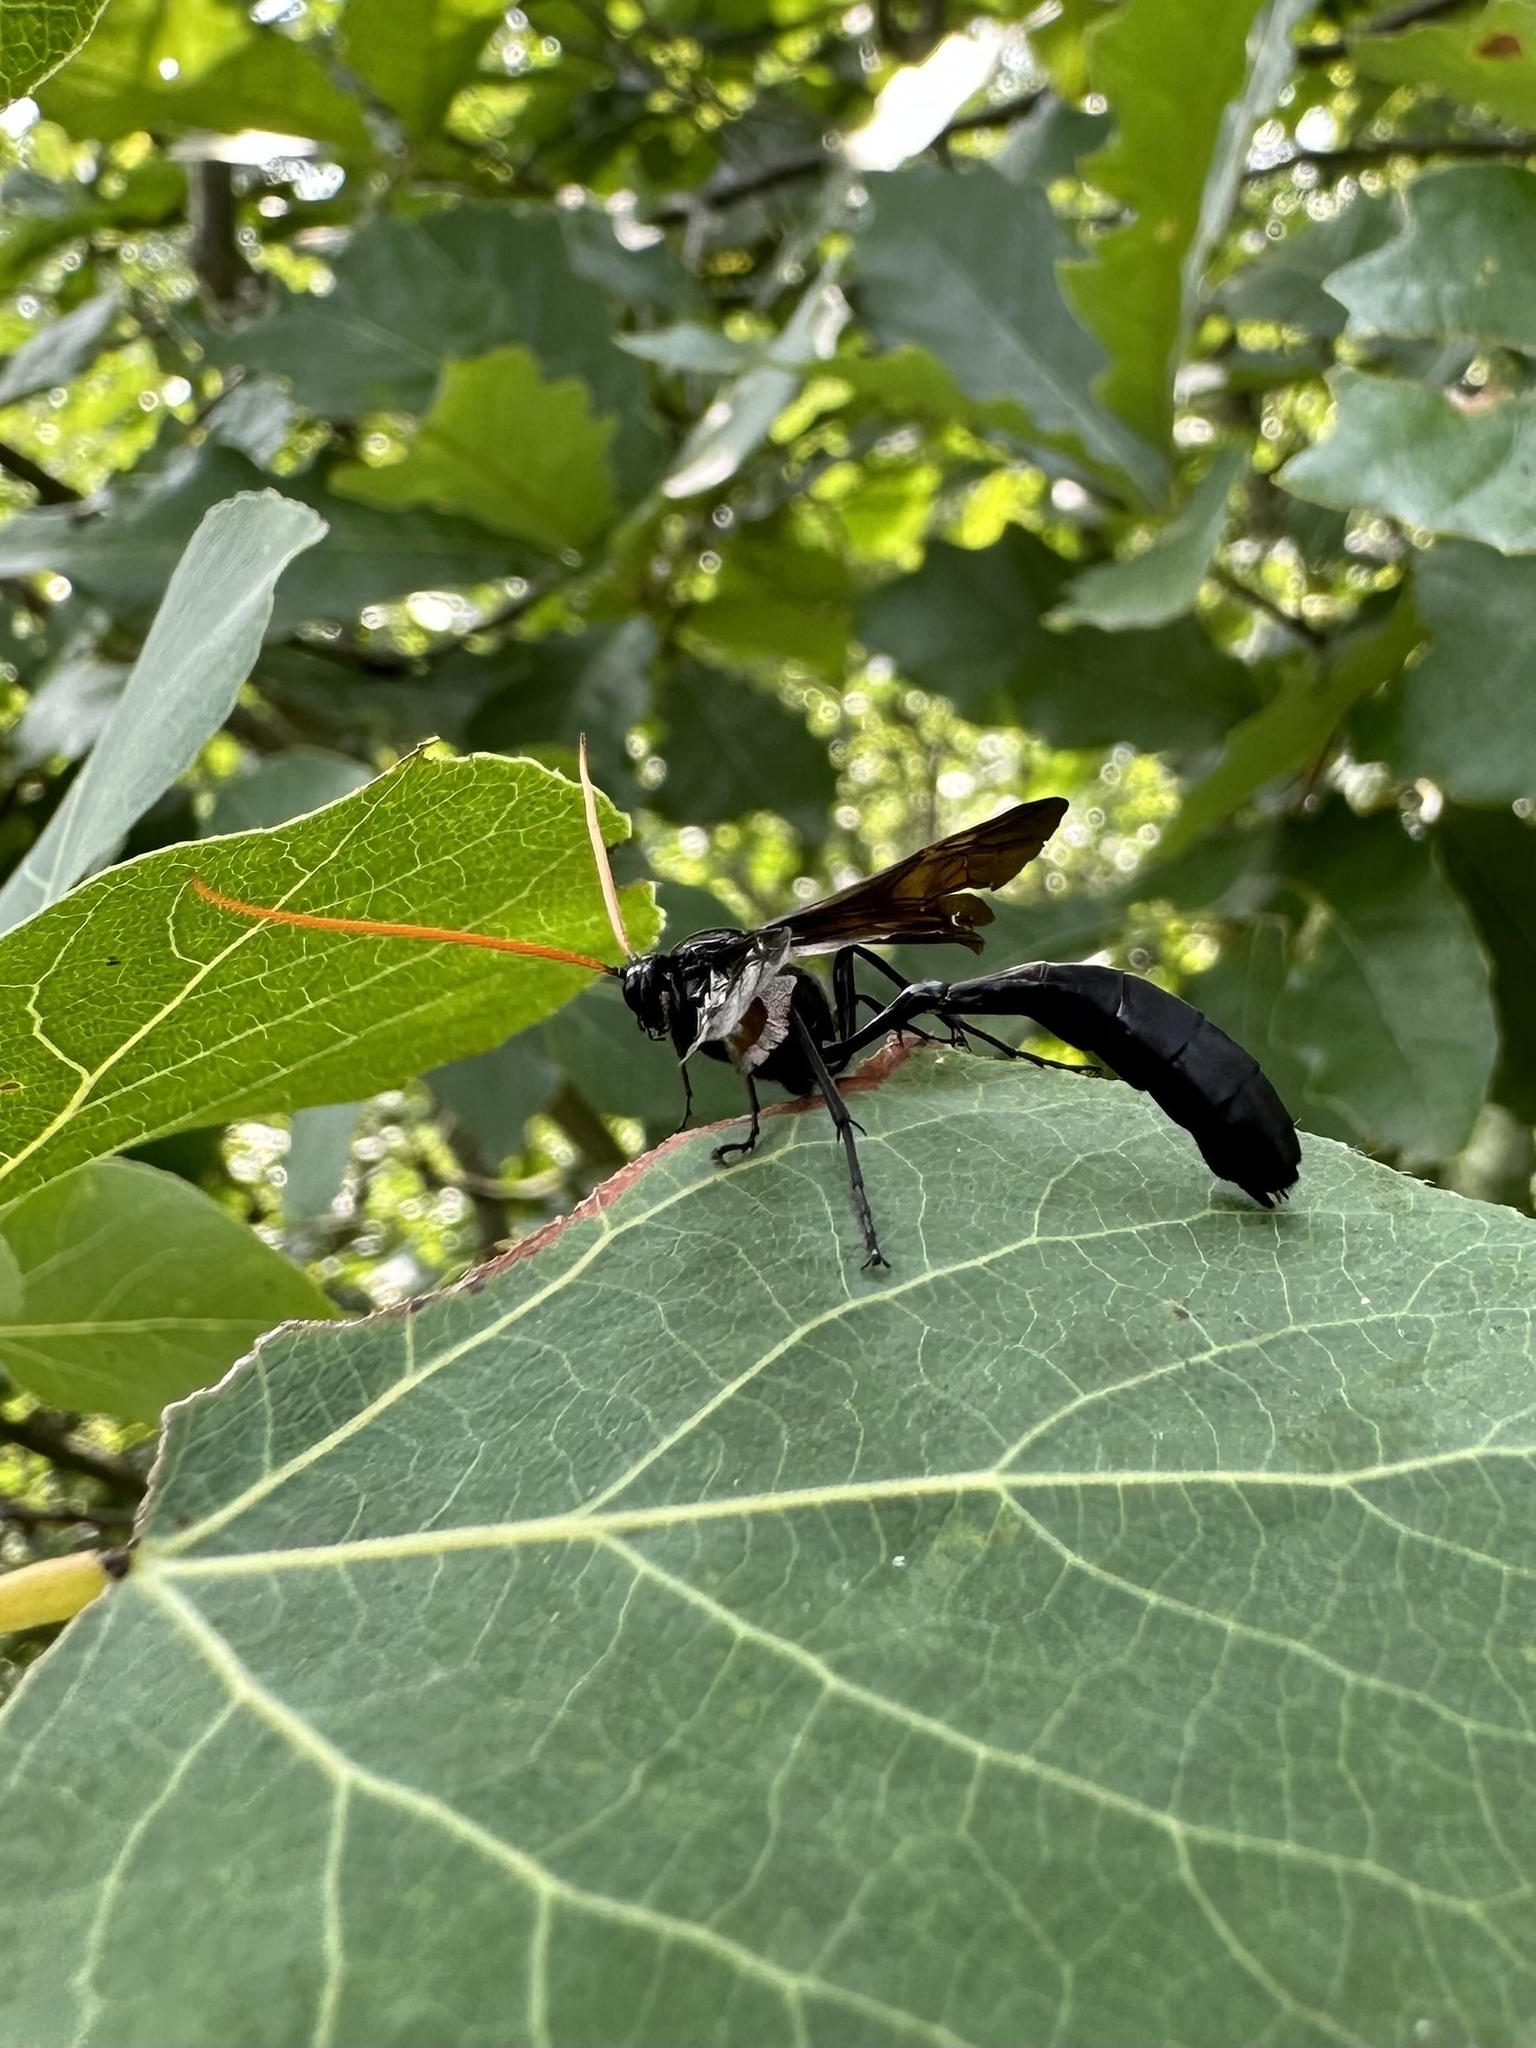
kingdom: Animalia
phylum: Arthropoda
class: Insecta
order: Hymenoptera
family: Ichneumonidae
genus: Thyreodon
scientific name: Thyreodon atricolor
